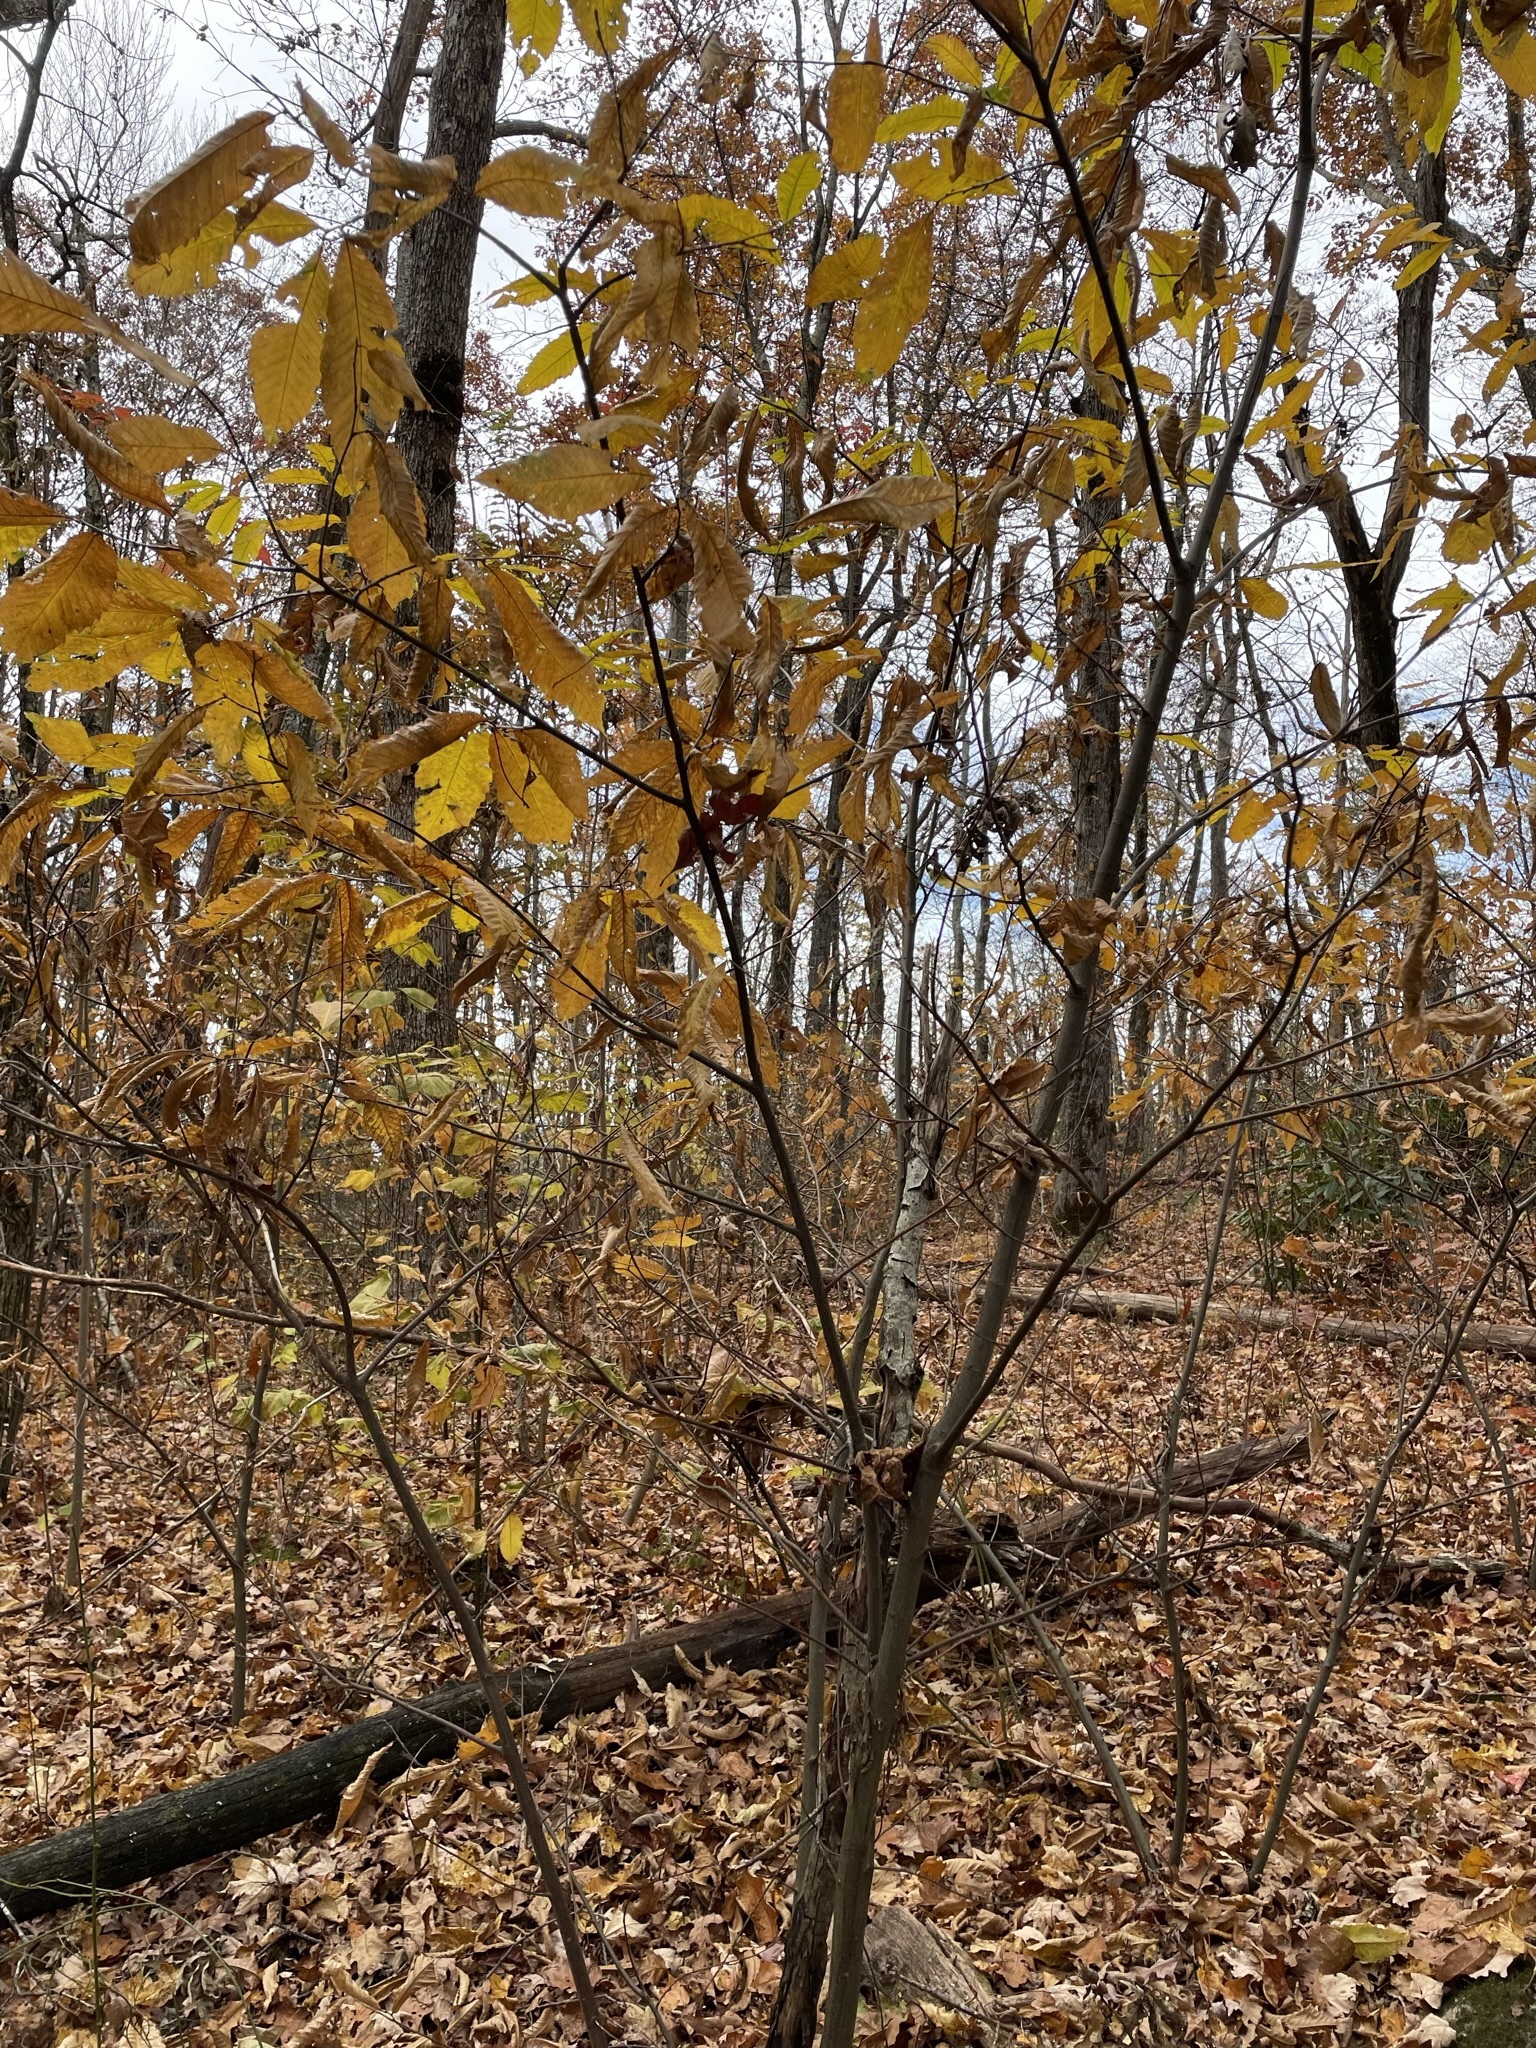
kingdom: Plantae
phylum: Tracheophyta
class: Magnoliopsida
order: Fagales
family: Fagaceae
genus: Castanea
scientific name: Castanea dentata
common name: American chestnut
